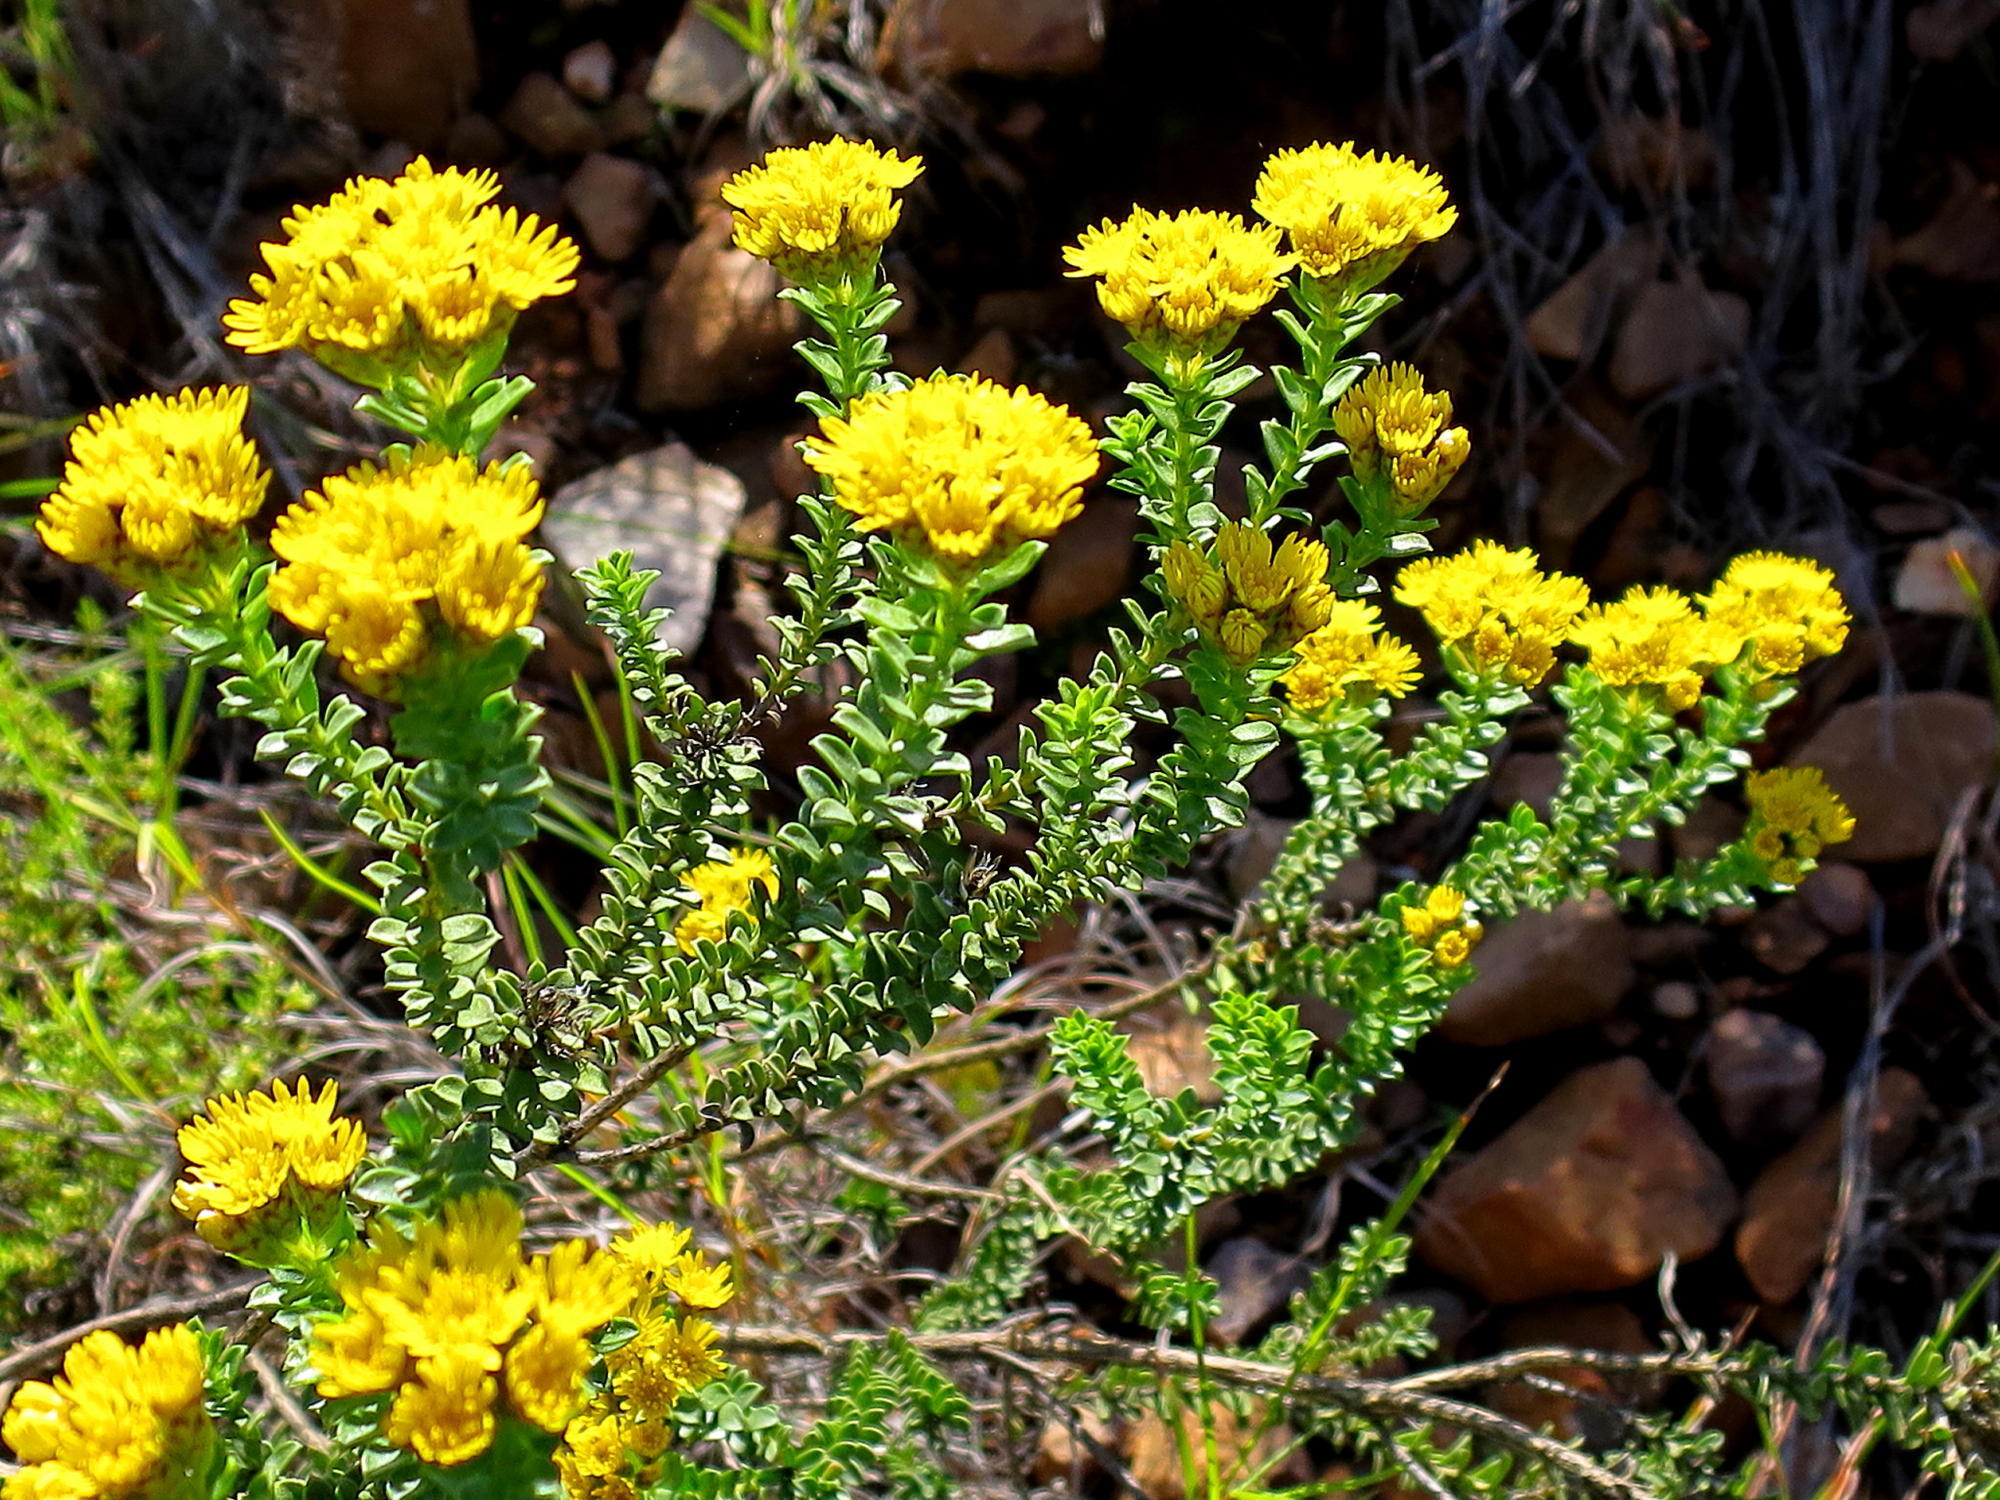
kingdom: Plantae
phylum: Tracheophyta
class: Magnoliopsida
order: Asterales
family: Asteraceae
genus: Oedera
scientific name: Oedera squarrosa
